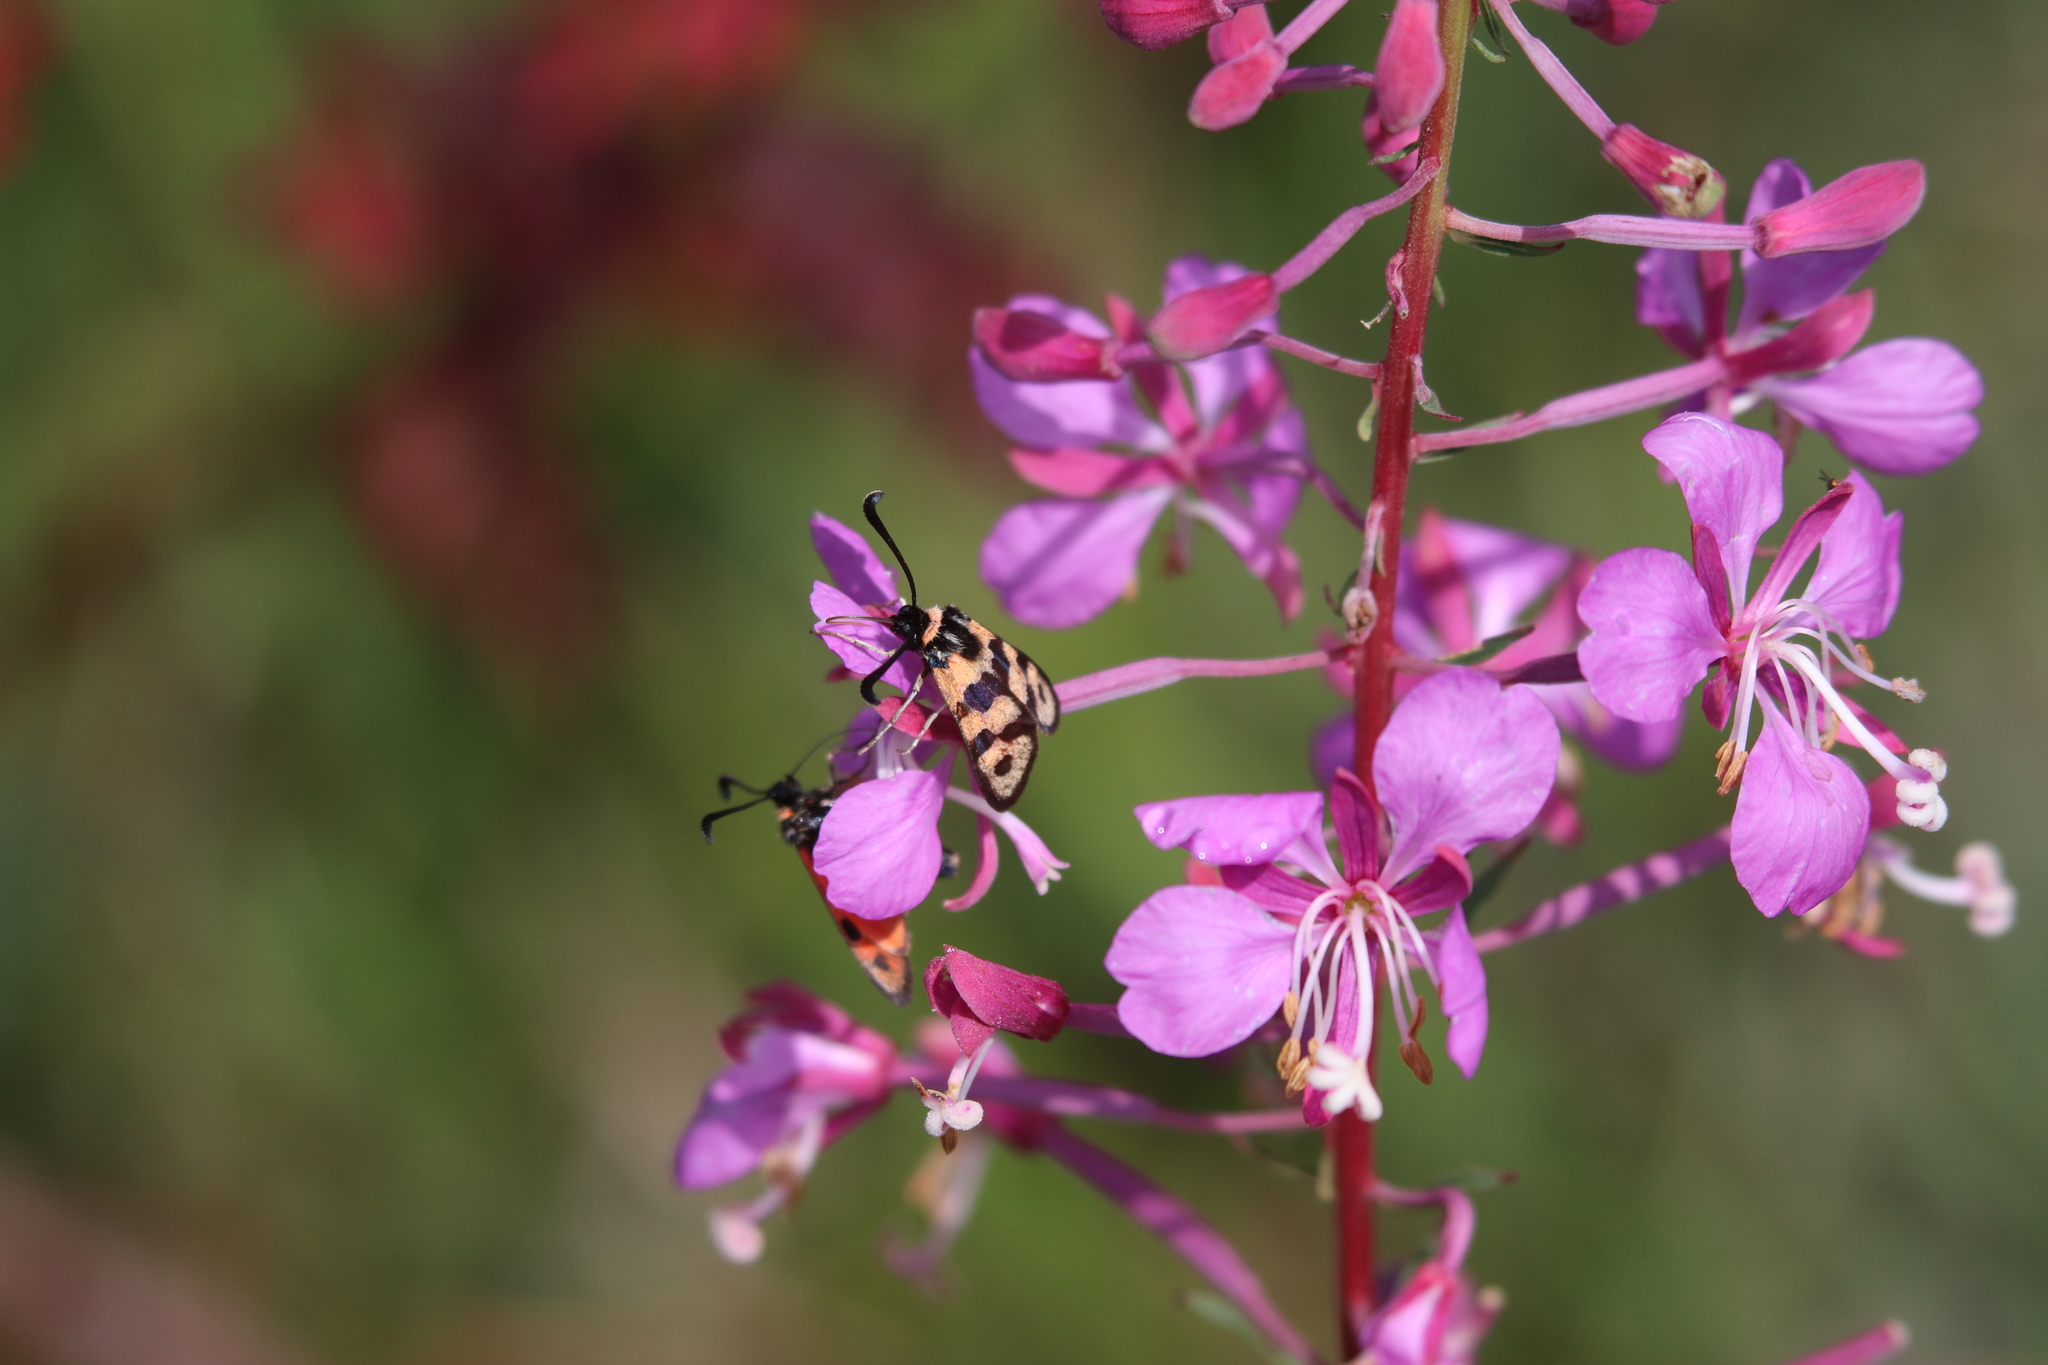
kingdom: Animalia
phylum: Arthropoda
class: Insecta
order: Lepidoptera
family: Zygaenidae
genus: Zygaena
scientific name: Zygaena fausta
